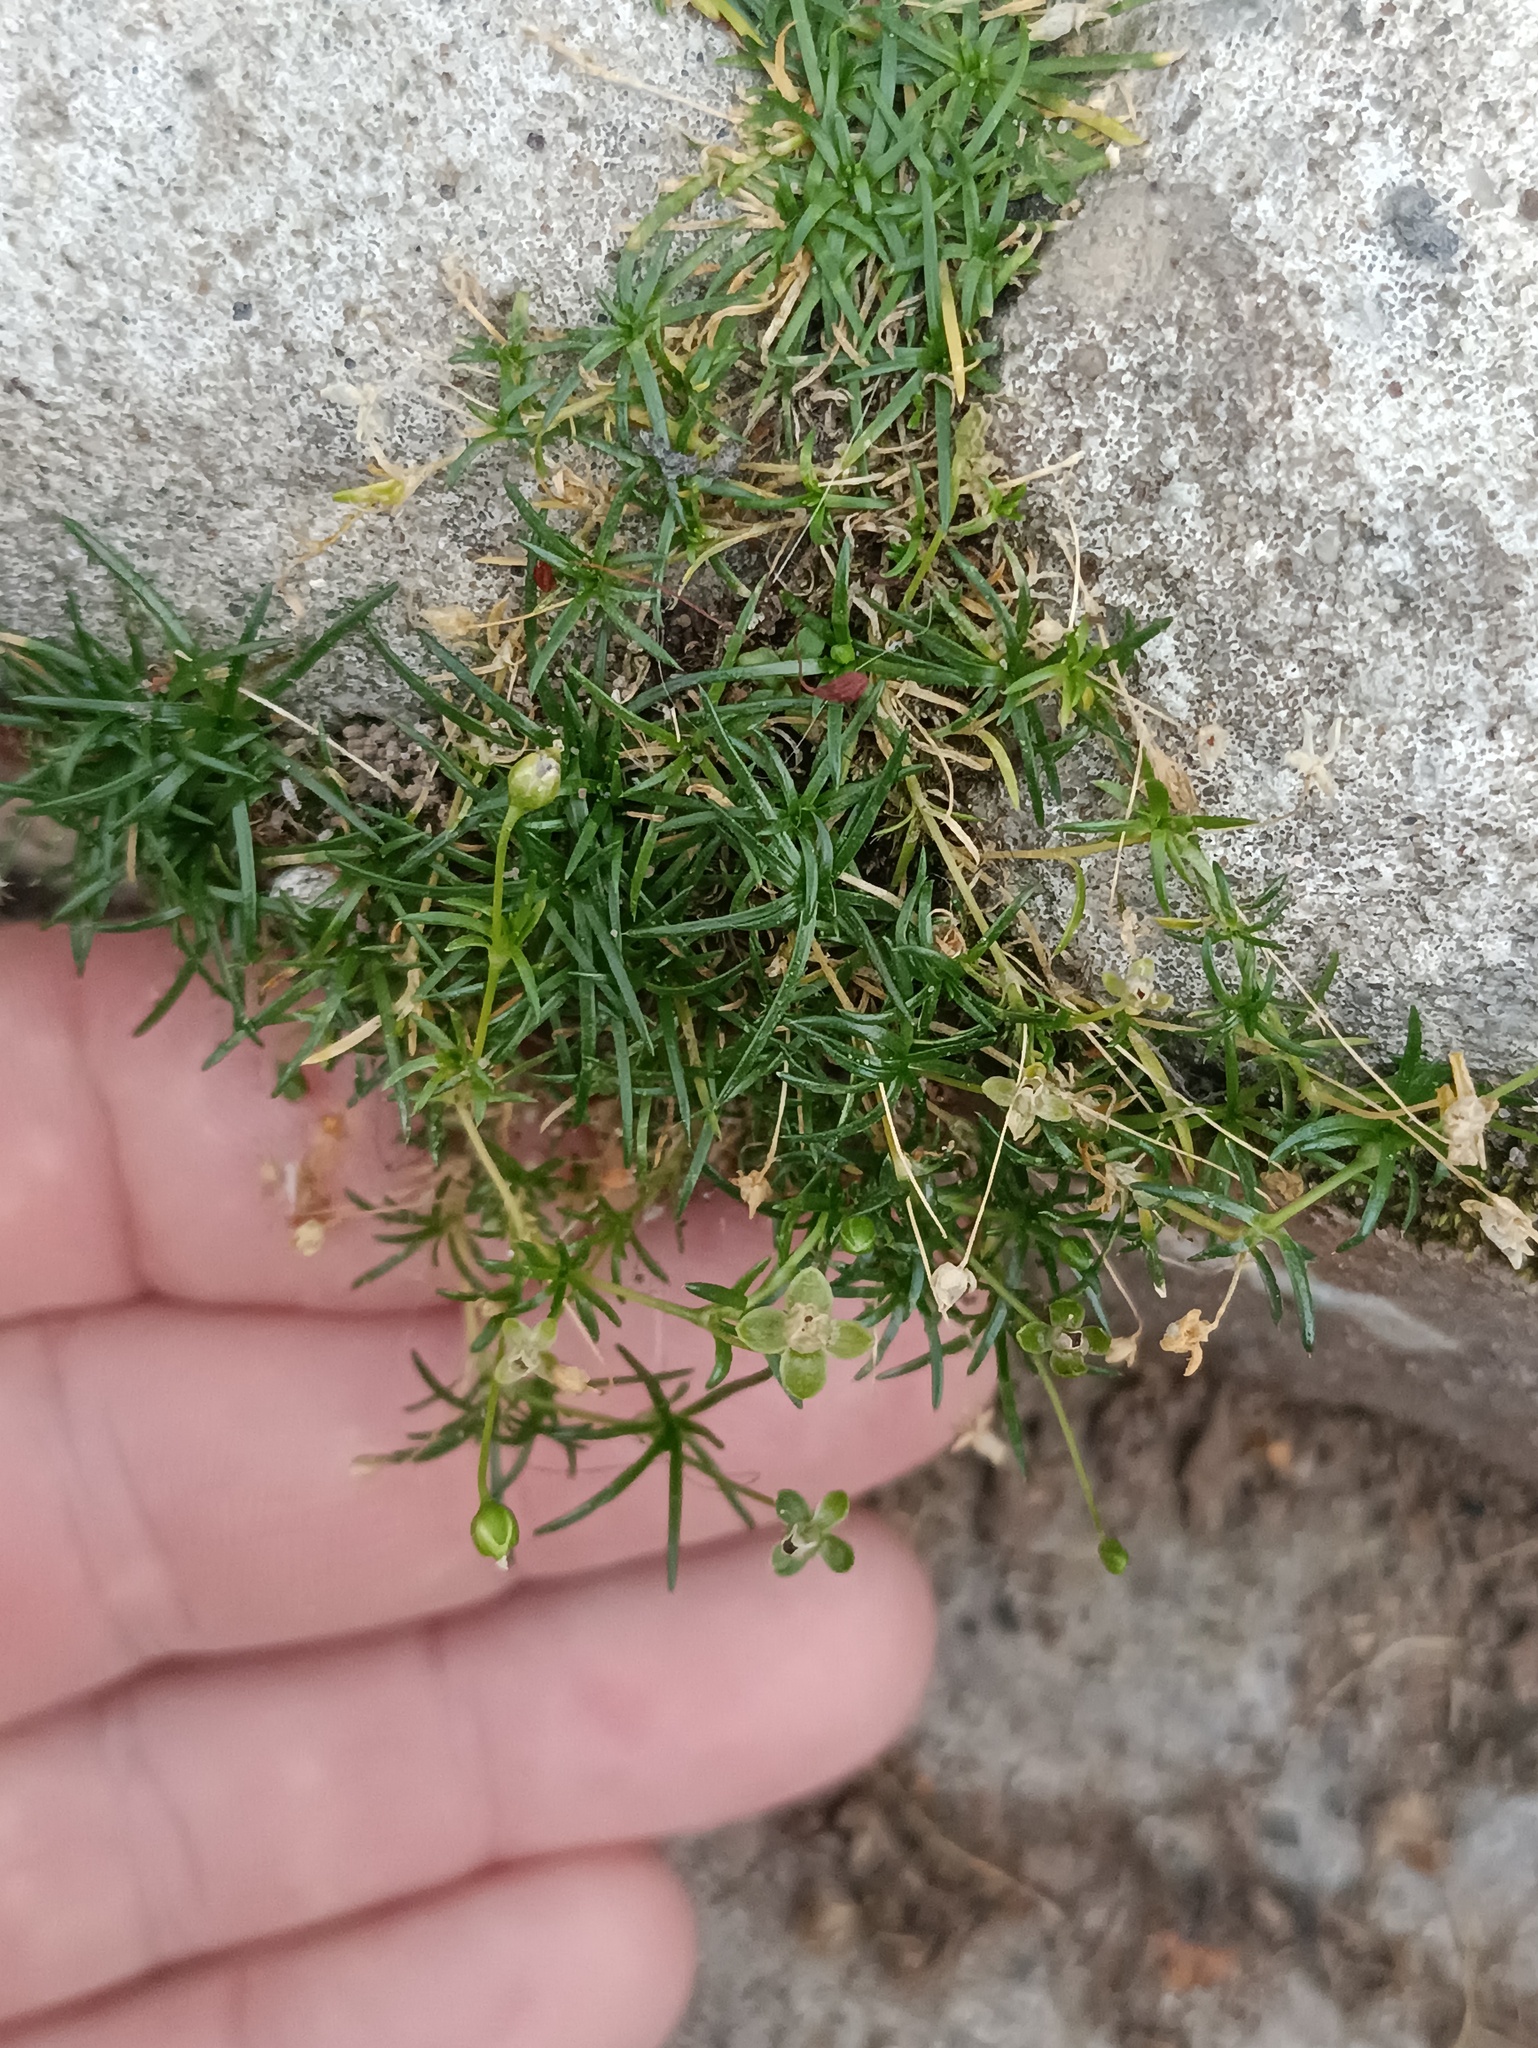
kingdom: Plantae
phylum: Tracheophyta
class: Magnoliopsida
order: Caryophyllales
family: Caryophyllaceae
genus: Sagina
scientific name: Sagina procumbens
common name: Procumbent pearlwort
